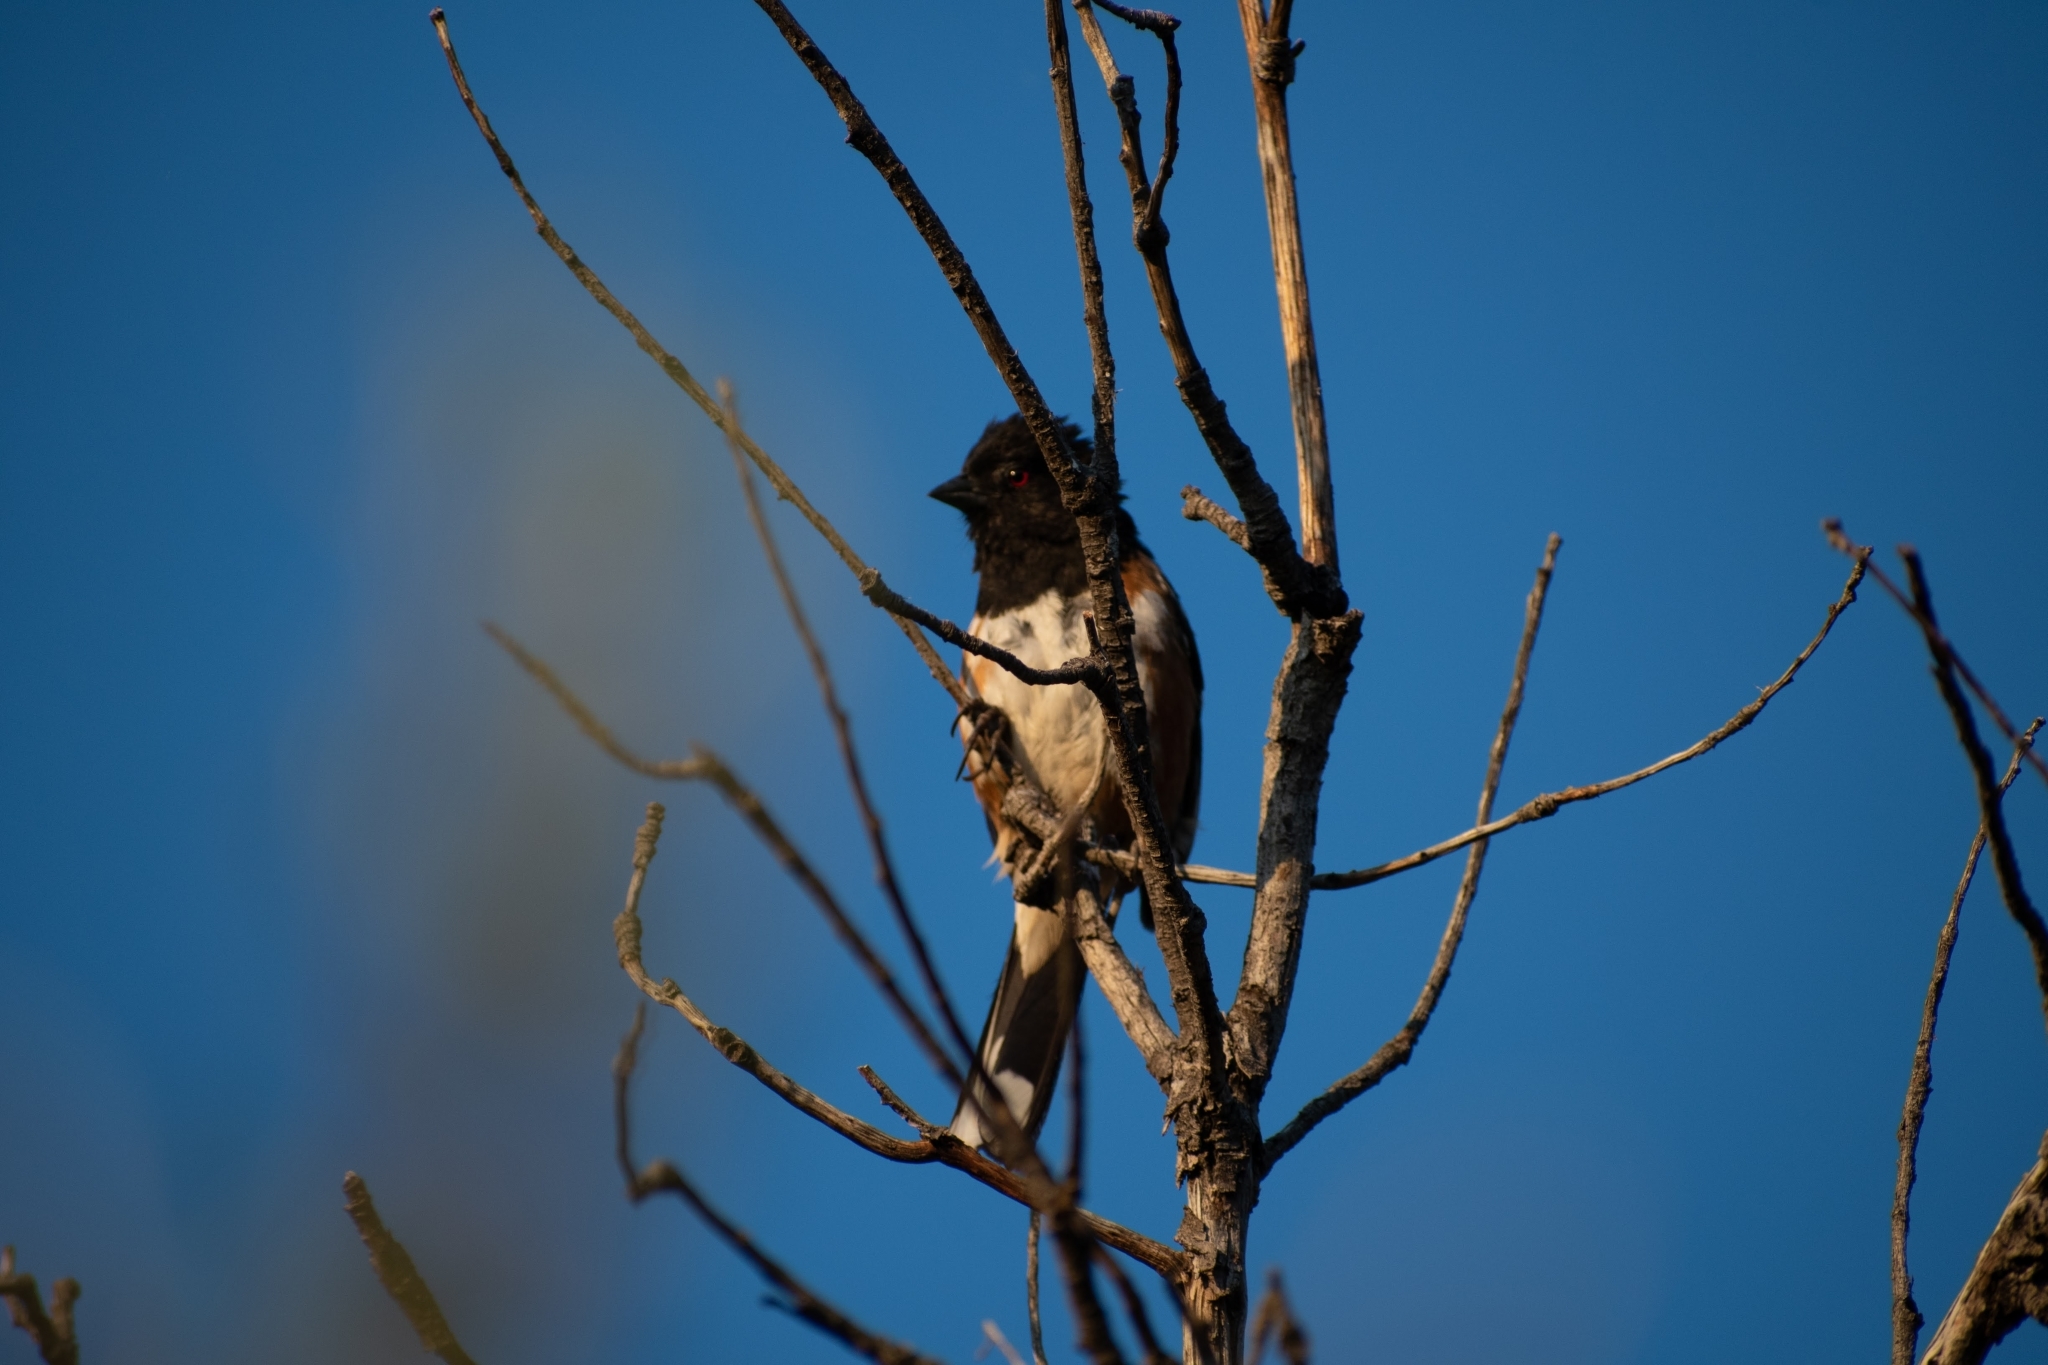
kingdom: Animalia
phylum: Chordata
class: Aves
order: Passeriformes
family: Passerellidae
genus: Pipilo
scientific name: Pipilo maculatus
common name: Spotted towhee
